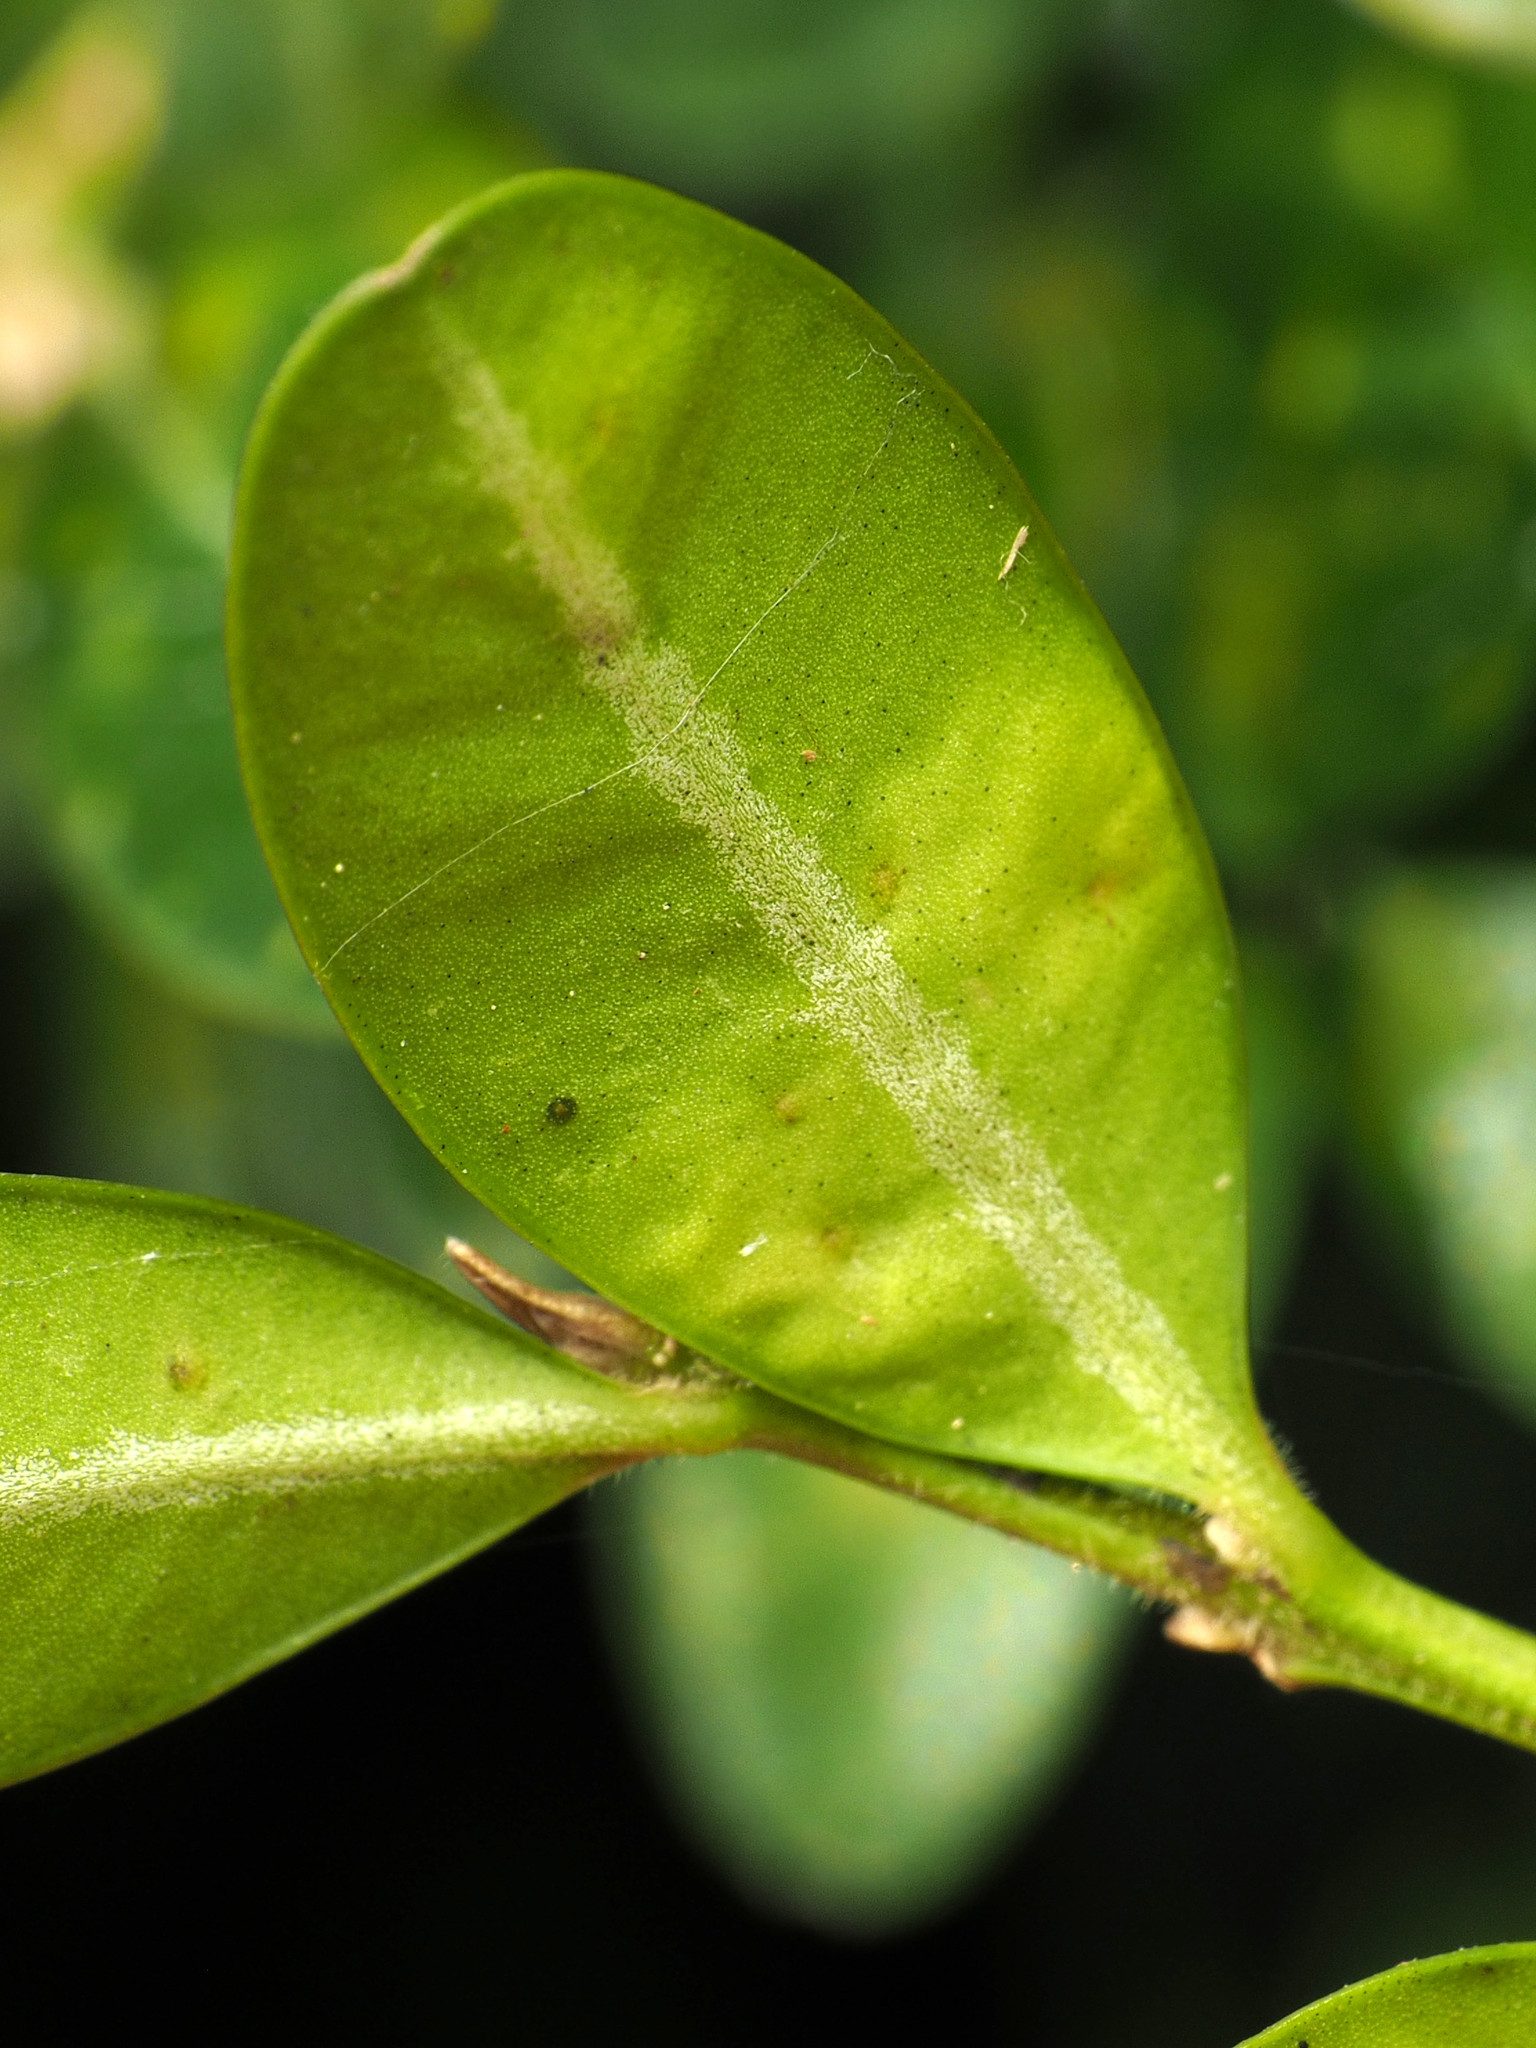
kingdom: Animalia
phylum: Arthropoda
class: Insecta
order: Diptera
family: Cecidomyiidae
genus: Monarthropalpus
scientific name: Monarthropalpus flavus
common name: Boxwood leafminer
